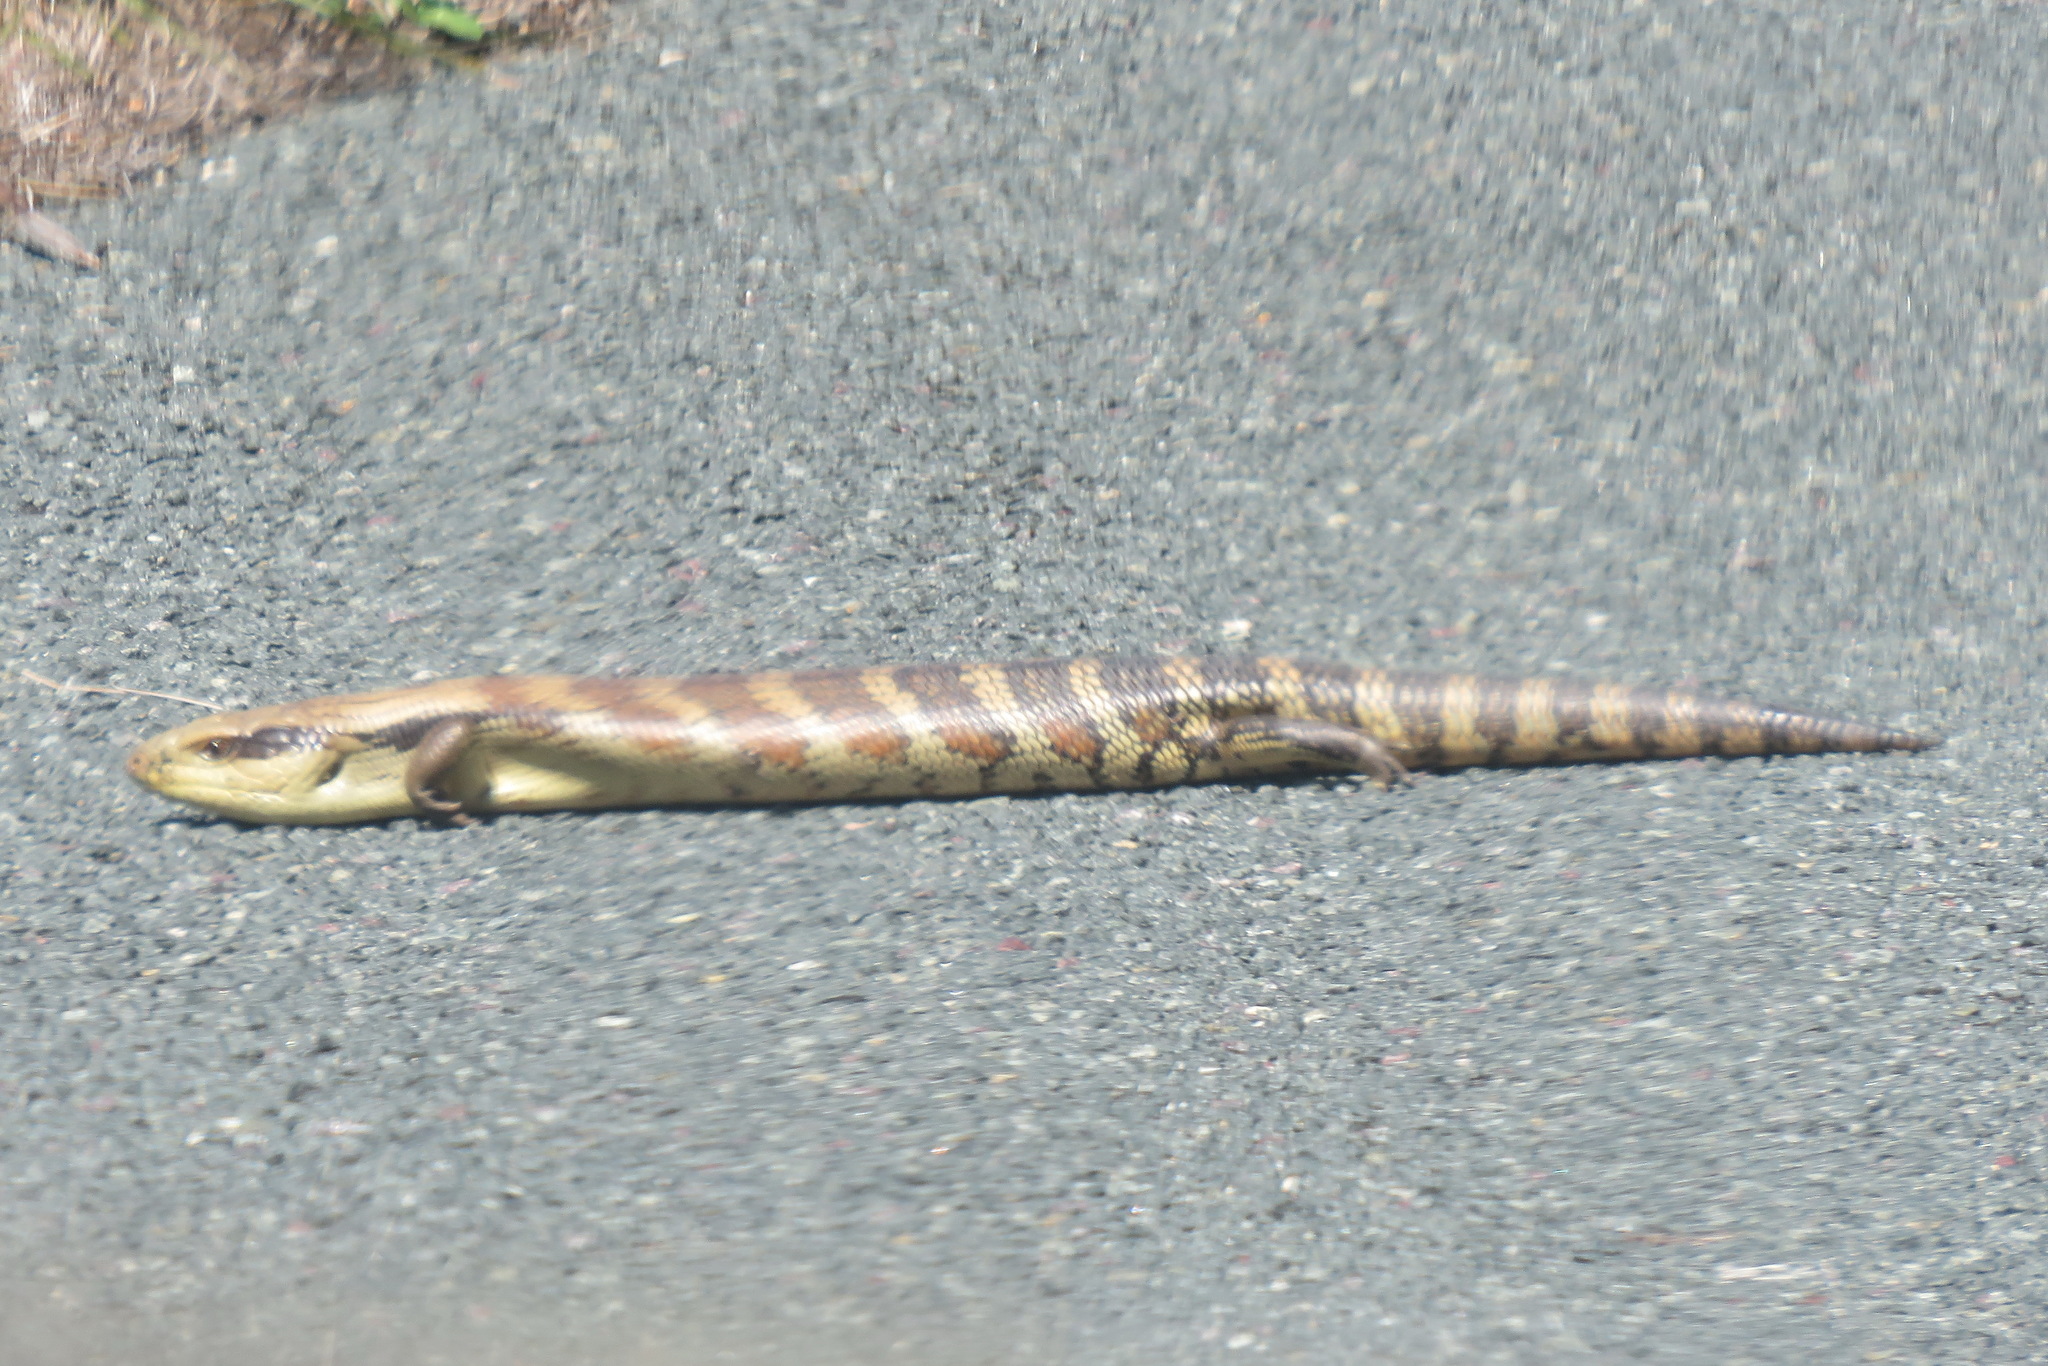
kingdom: Animalia
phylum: Chordata
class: Squamata
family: Scincidae
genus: Tiliqua
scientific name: Tiliqua scincoides
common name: Common bluetongue
